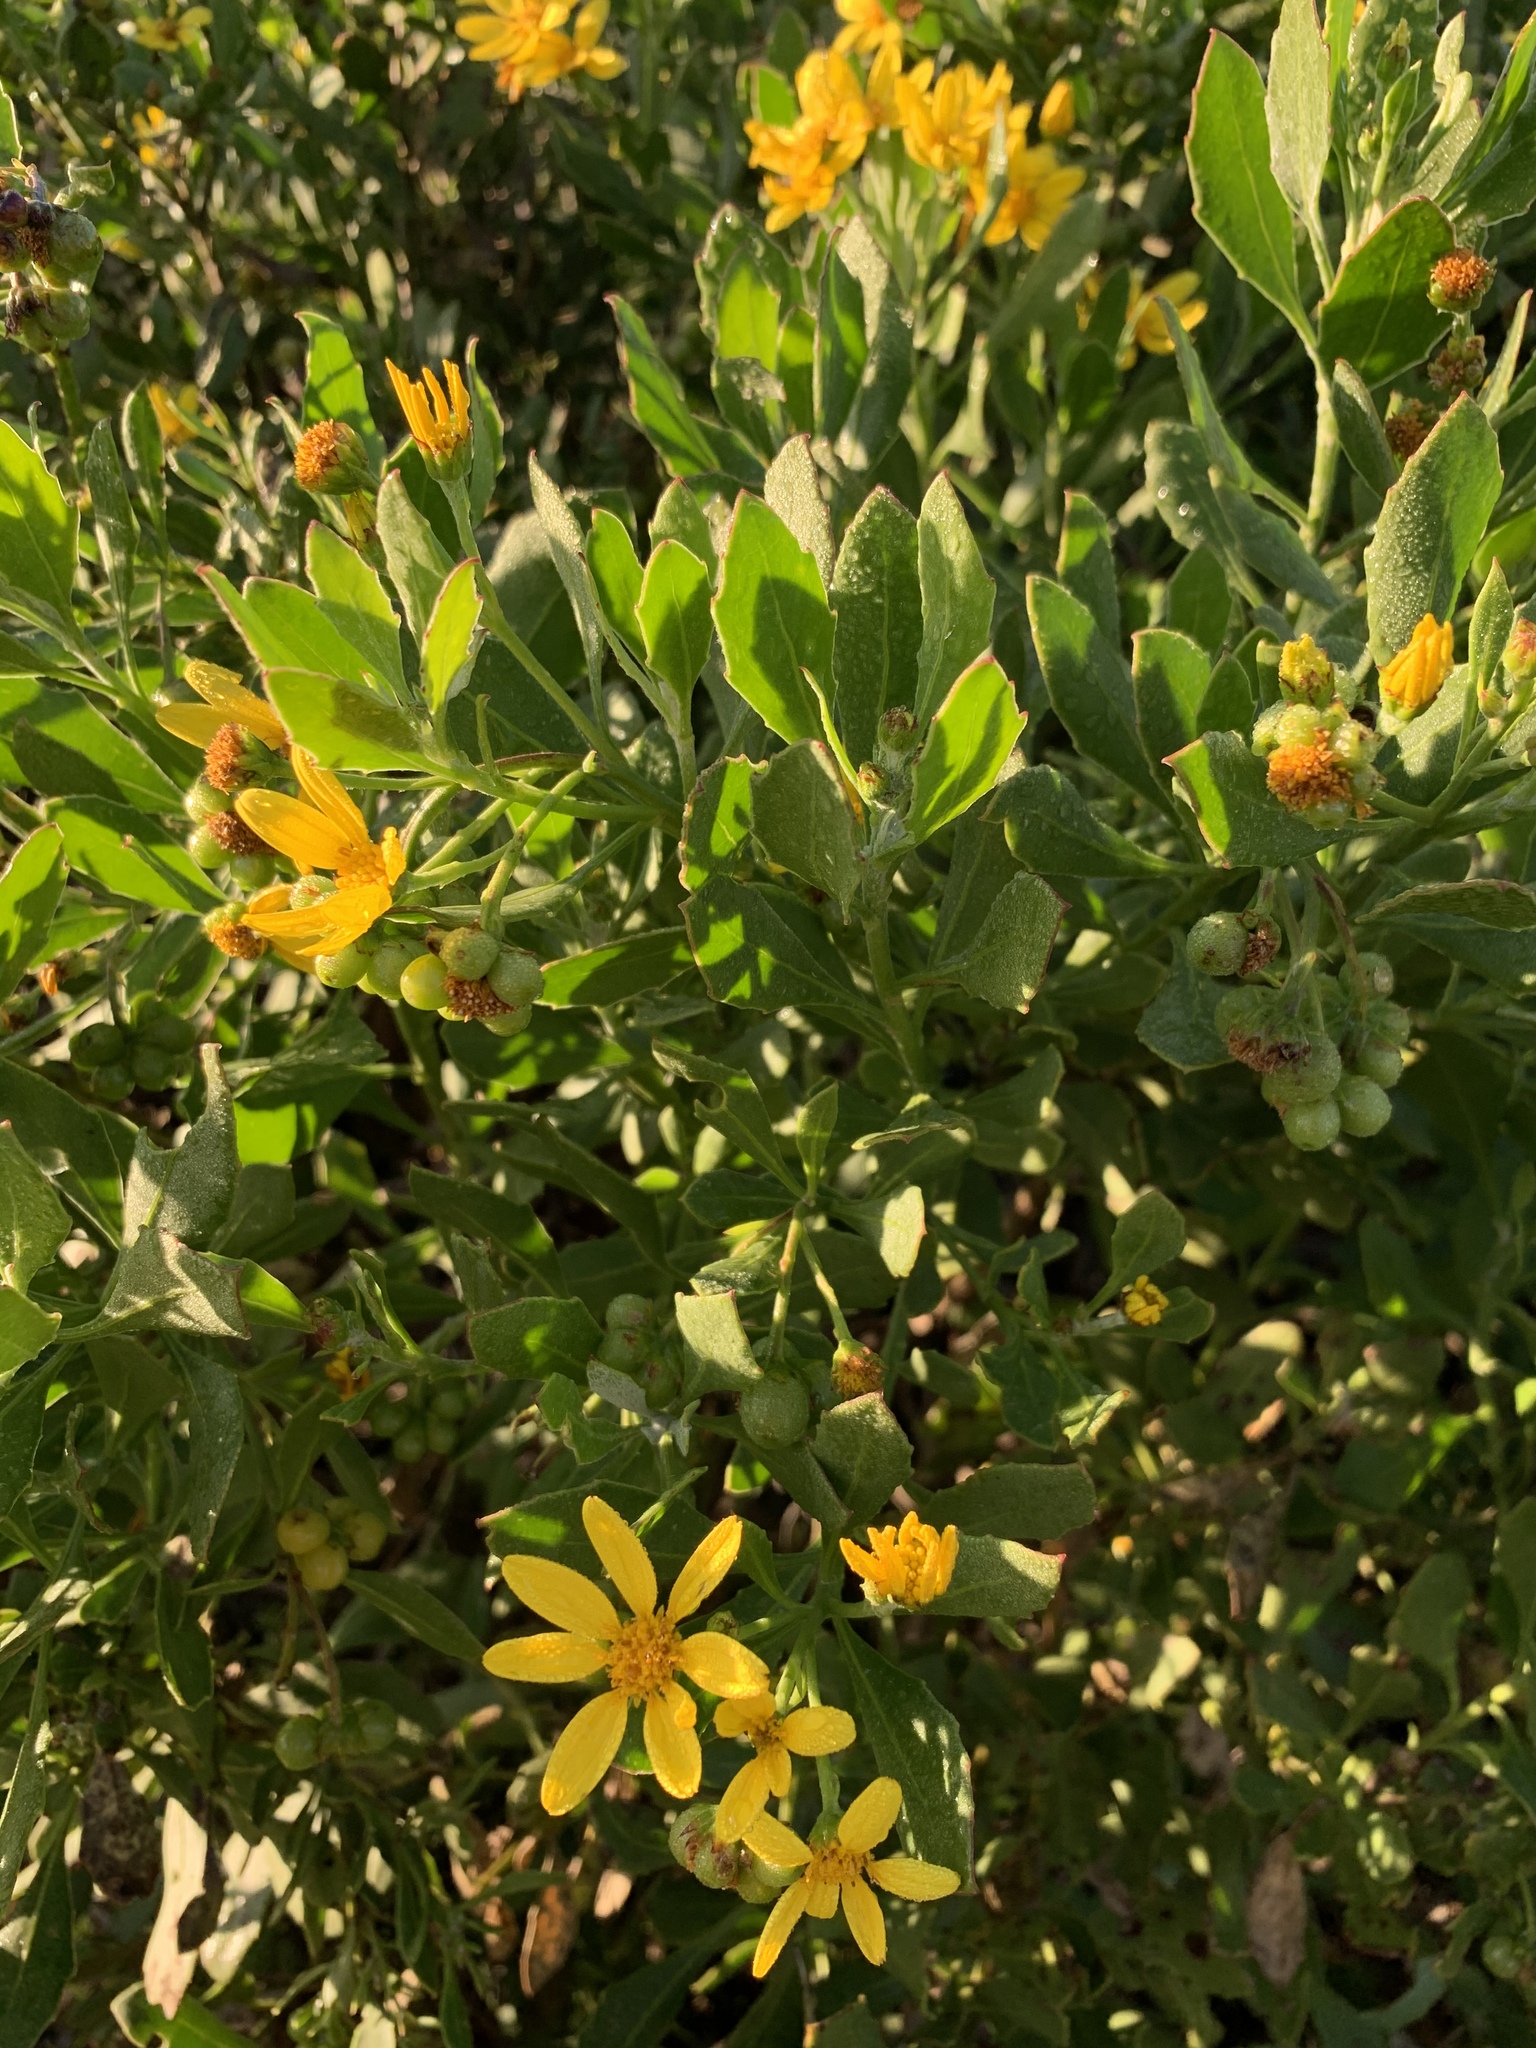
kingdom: Plantae
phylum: Tracheophyta
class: Magnoliopsida
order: Asterales
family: Asteraceae
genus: Osteospermum
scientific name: Osteospermum moniliferum
